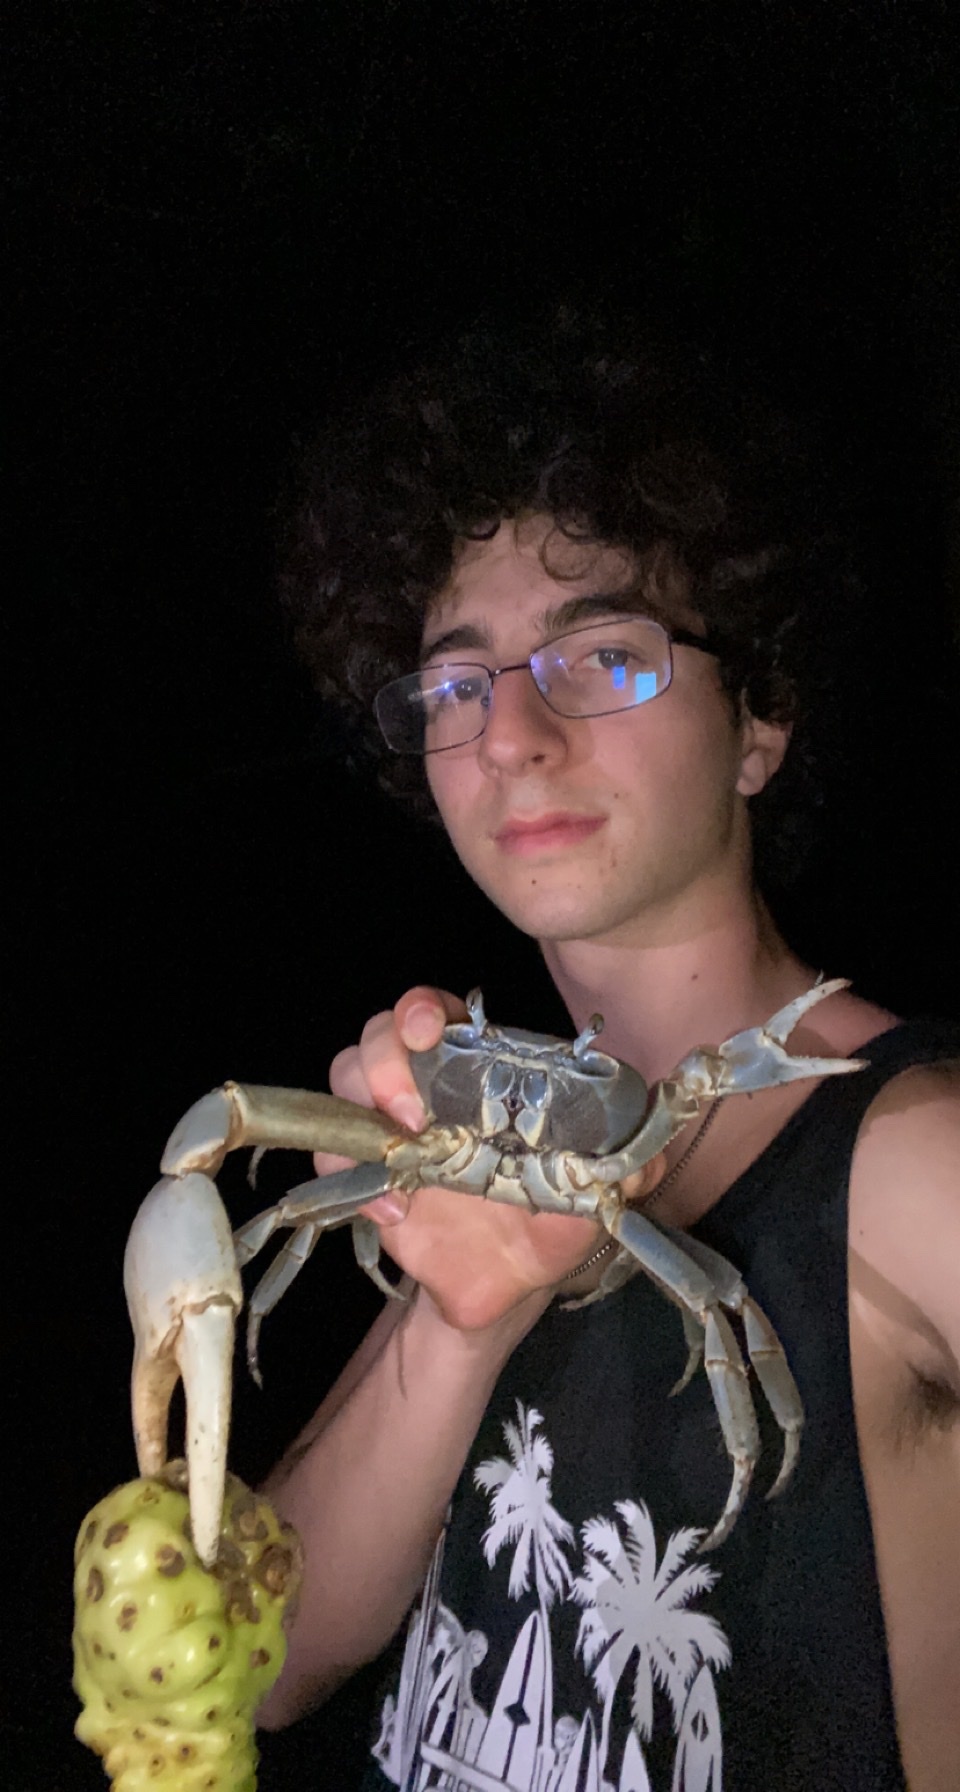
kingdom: Animalia
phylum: Arthropoda
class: Malacostraca
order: Decapoda
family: Gecarcinidae
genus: Cardisoma
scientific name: Cardisoma guanhumi
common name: Great land crab
